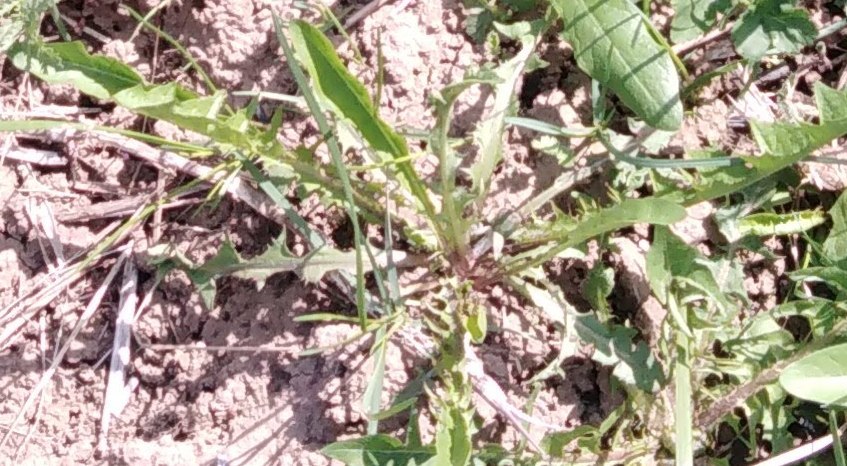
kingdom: Plantae
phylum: Tracheophyta
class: Magnoliopsida
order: Asterales
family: Asteraceae
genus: Taraxacum
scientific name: Taraxacum officinale
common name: Common dandelion
